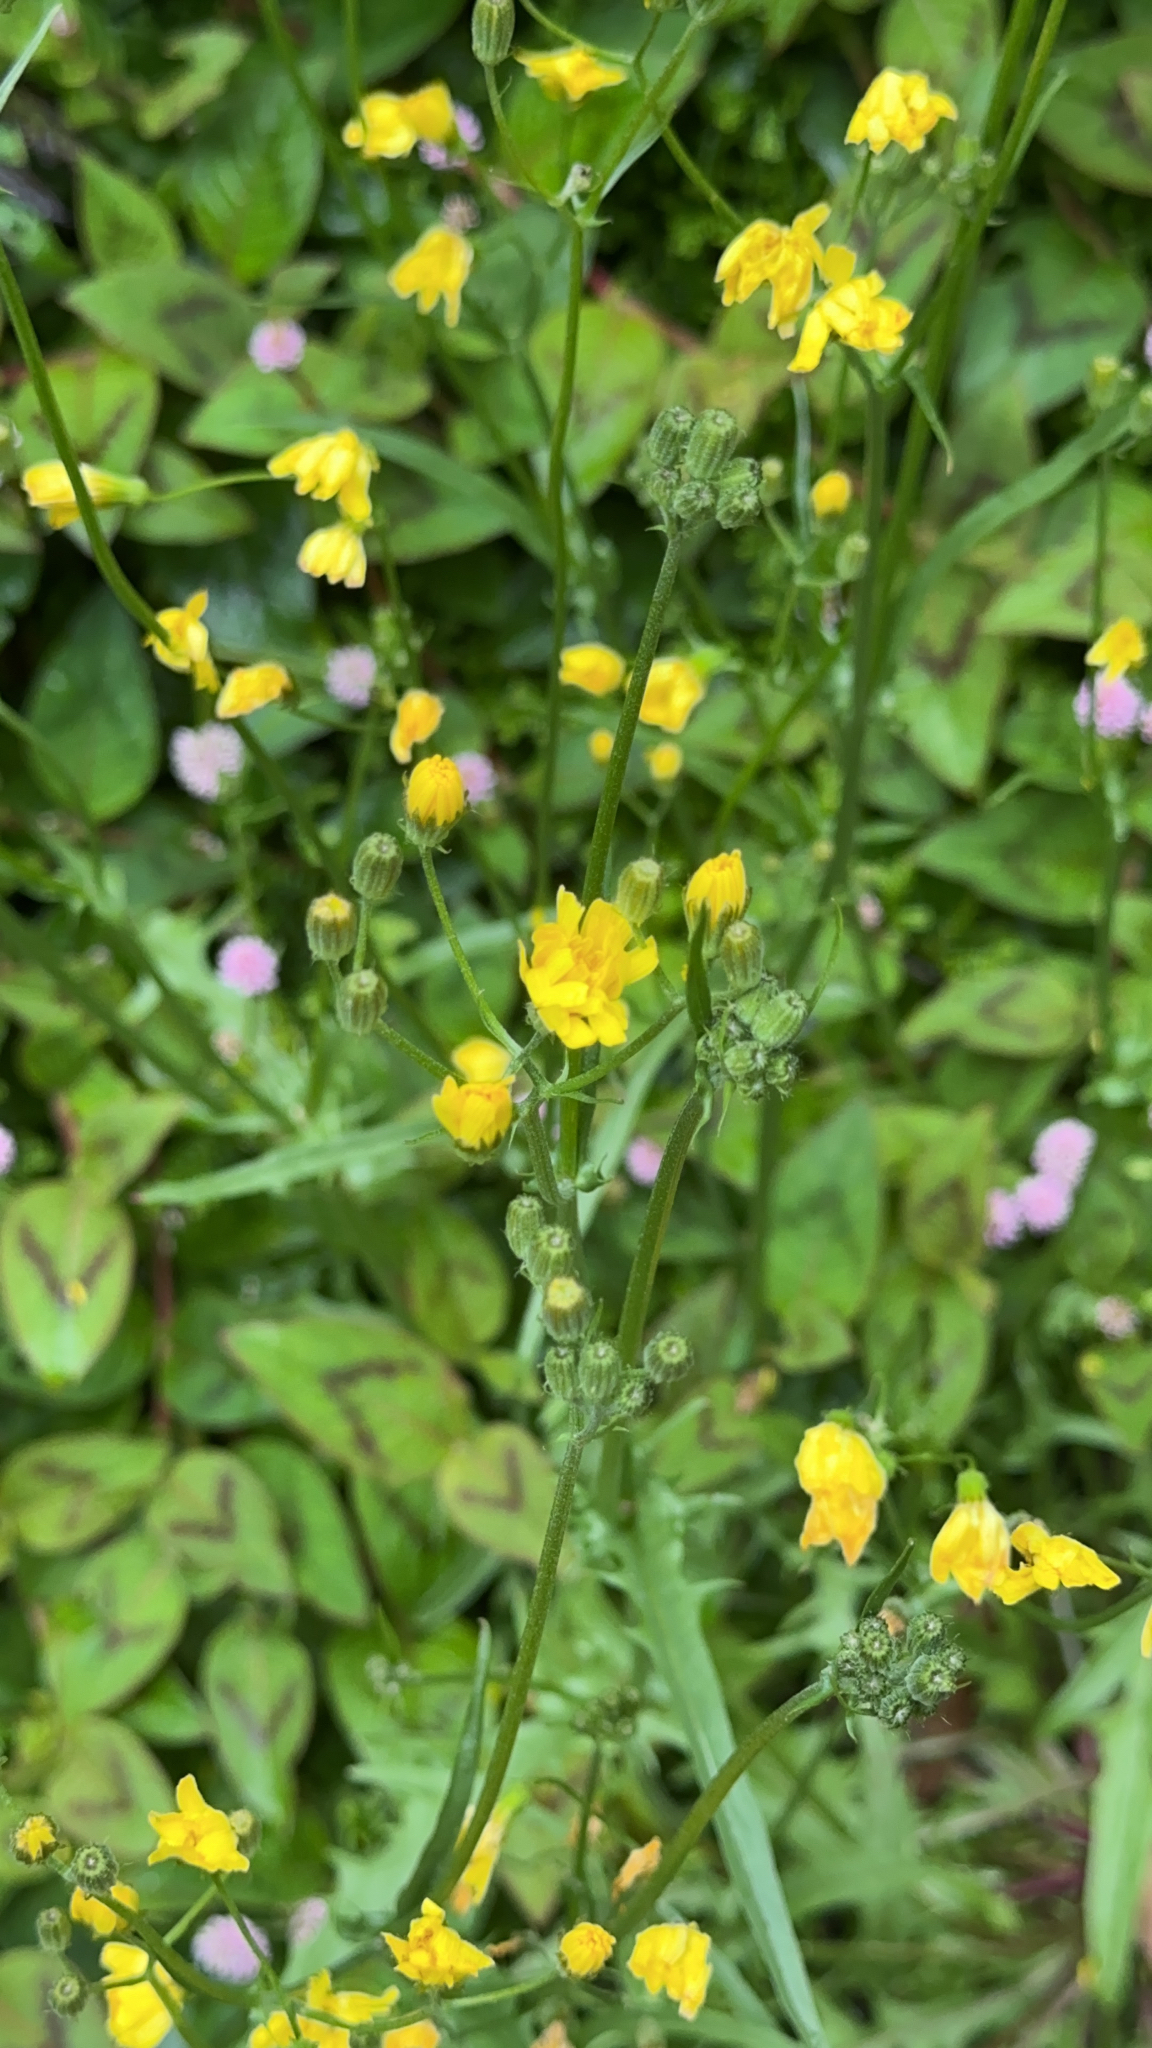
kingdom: Plantae
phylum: Tracheophyta
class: Magnoliopsida
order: Asterales
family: Asteraceae
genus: Crepis
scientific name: Crepis capillaris
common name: Smooth hawksbeard
